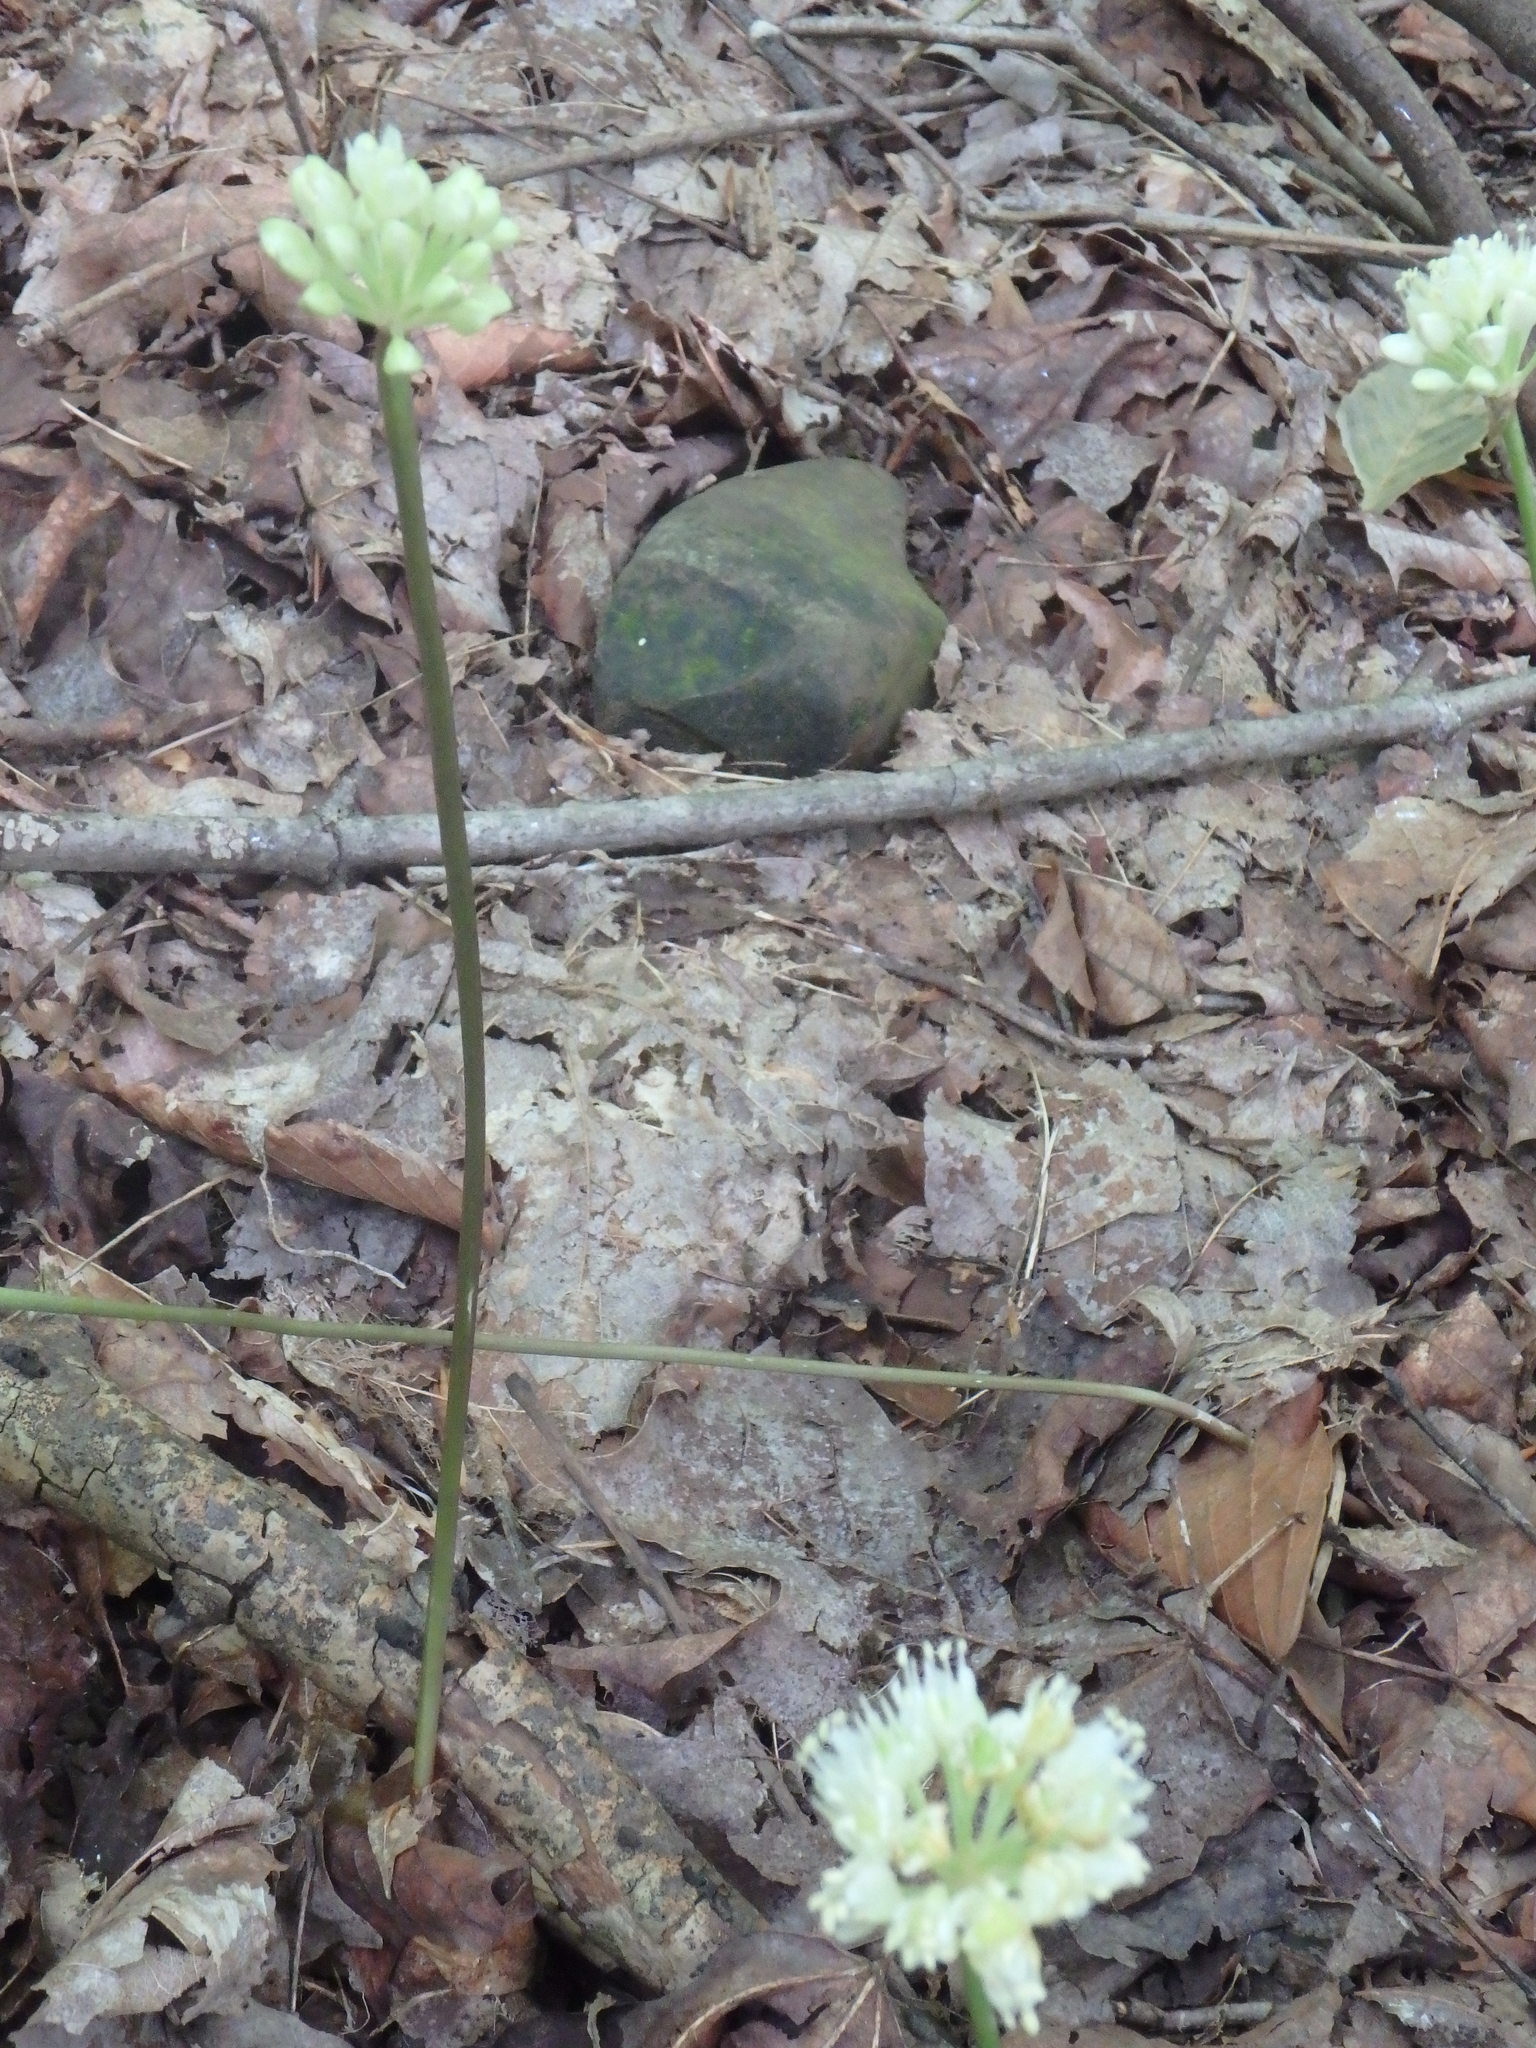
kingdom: Plantae
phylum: Tracheophyta
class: Liliopsida
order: Asparagales
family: Amaryllidaceae
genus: Allium
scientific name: Allium tricoccum
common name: Ramp
